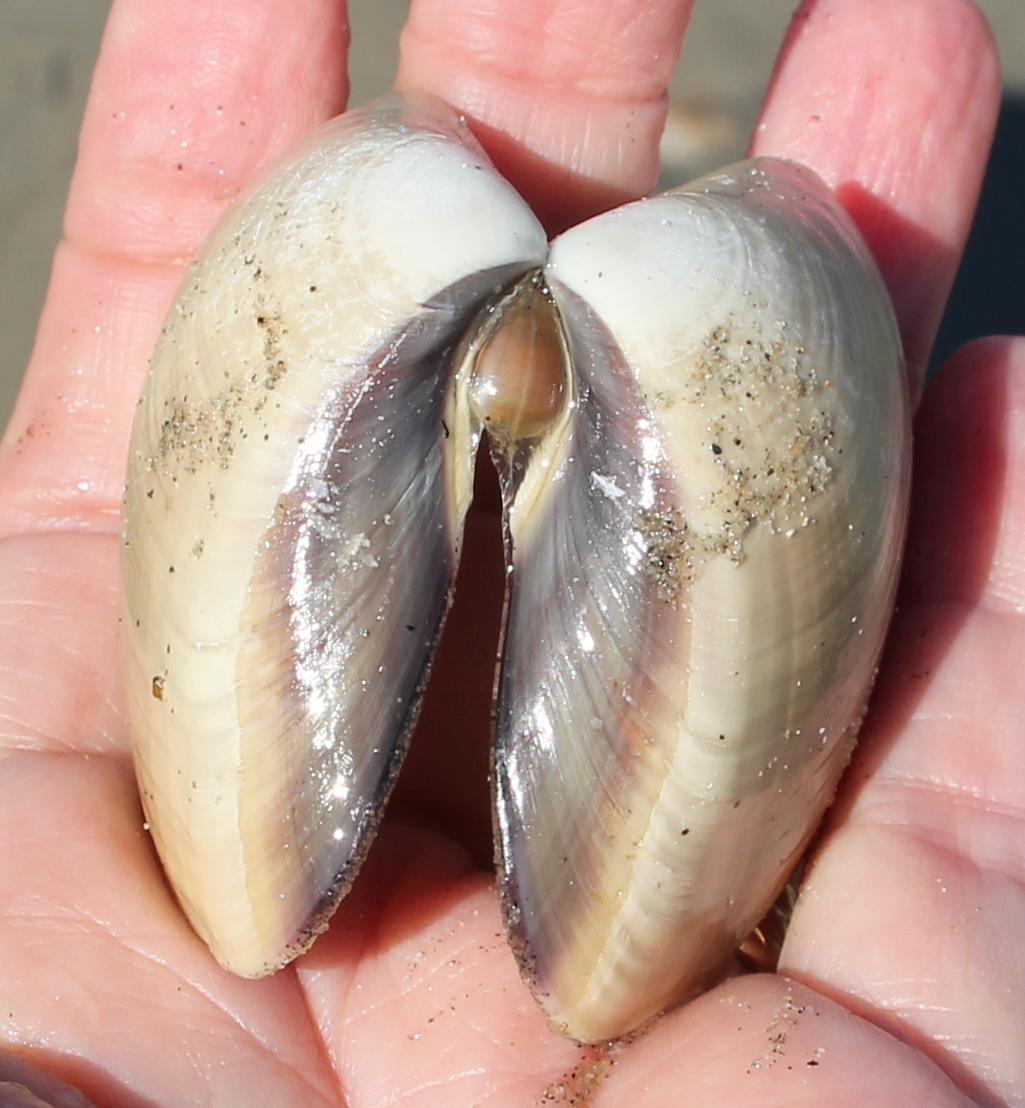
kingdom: Animalia
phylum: Mollusca
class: Bivalvia
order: Venerida
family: Veneridae
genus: Tivela
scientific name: Tivela stultorum
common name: Pismo clam
